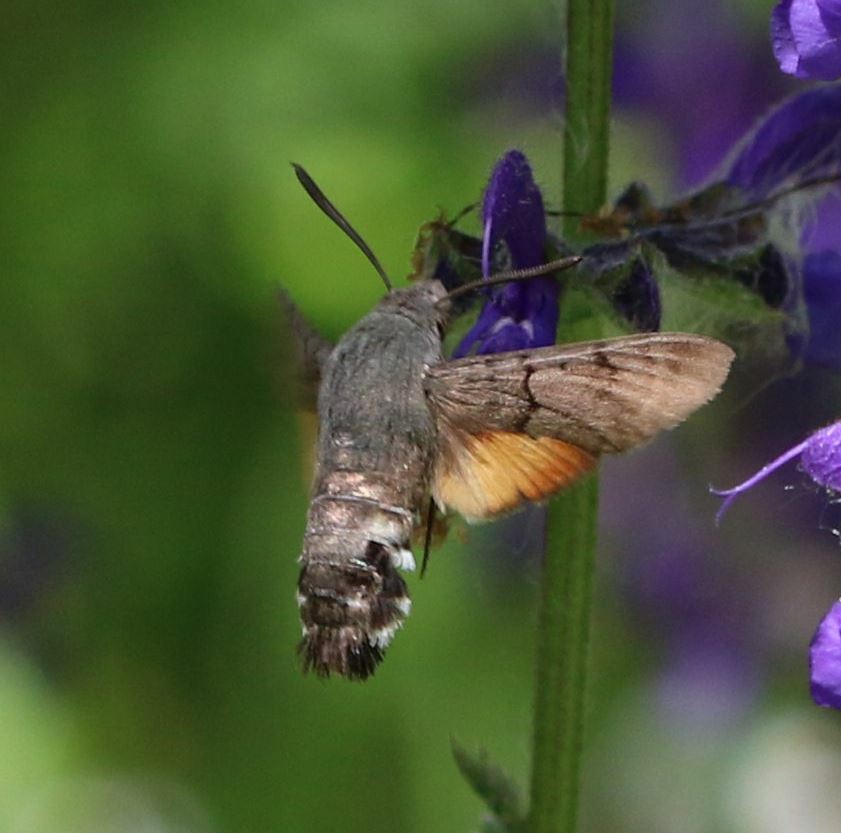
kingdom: Animalia
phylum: Arthropoda
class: Insecta
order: Lepidoptera
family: Sphingidae
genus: Macroglossum
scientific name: Macroglossum stellatarum
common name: Humming-bird hawk-moth
